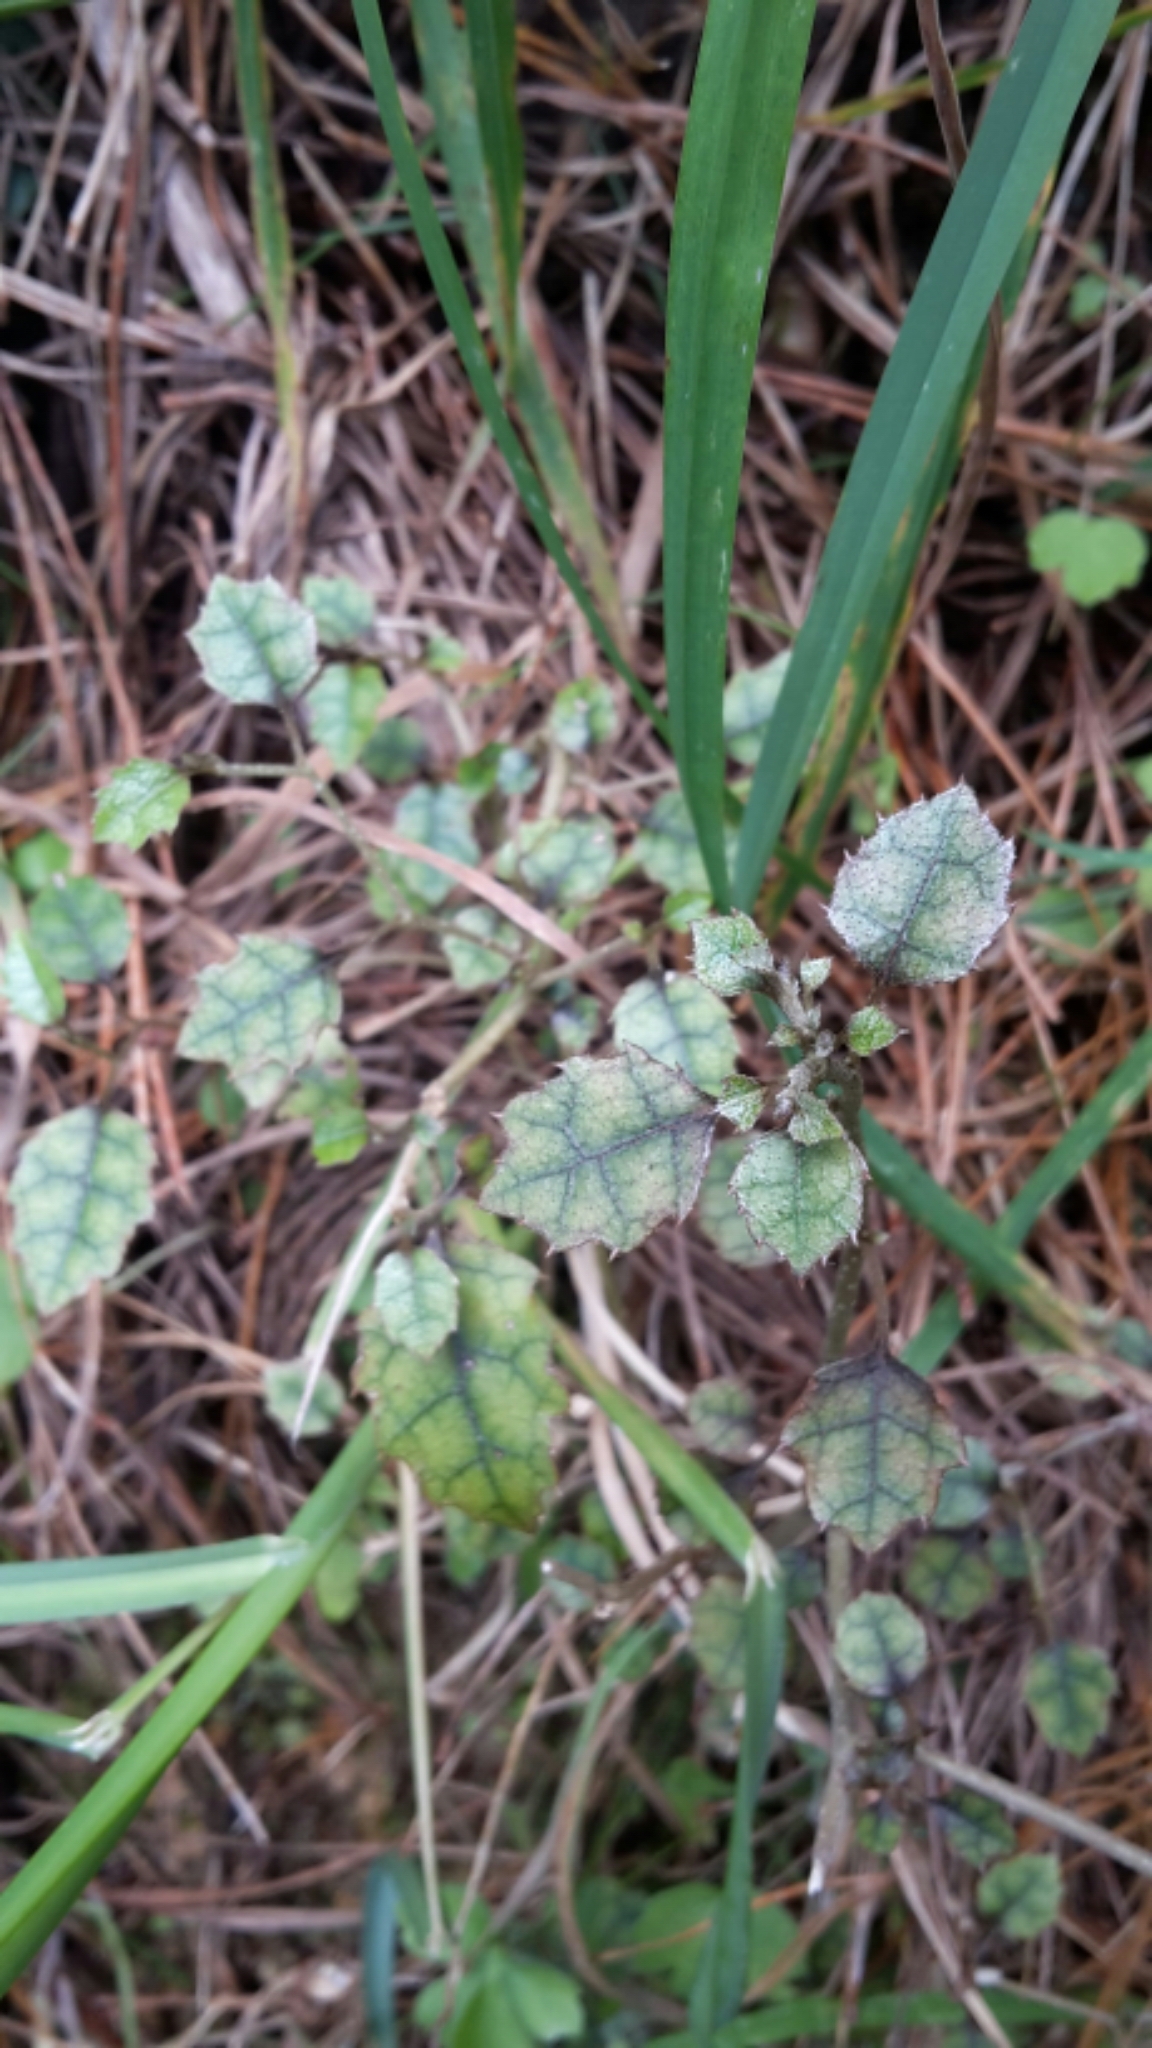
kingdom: Plantae
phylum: Tracheophyta
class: Magnoliopsida
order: Asterales
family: Rousseaceae
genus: Carpodetus
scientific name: Carpodetus serratus
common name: White mapau
